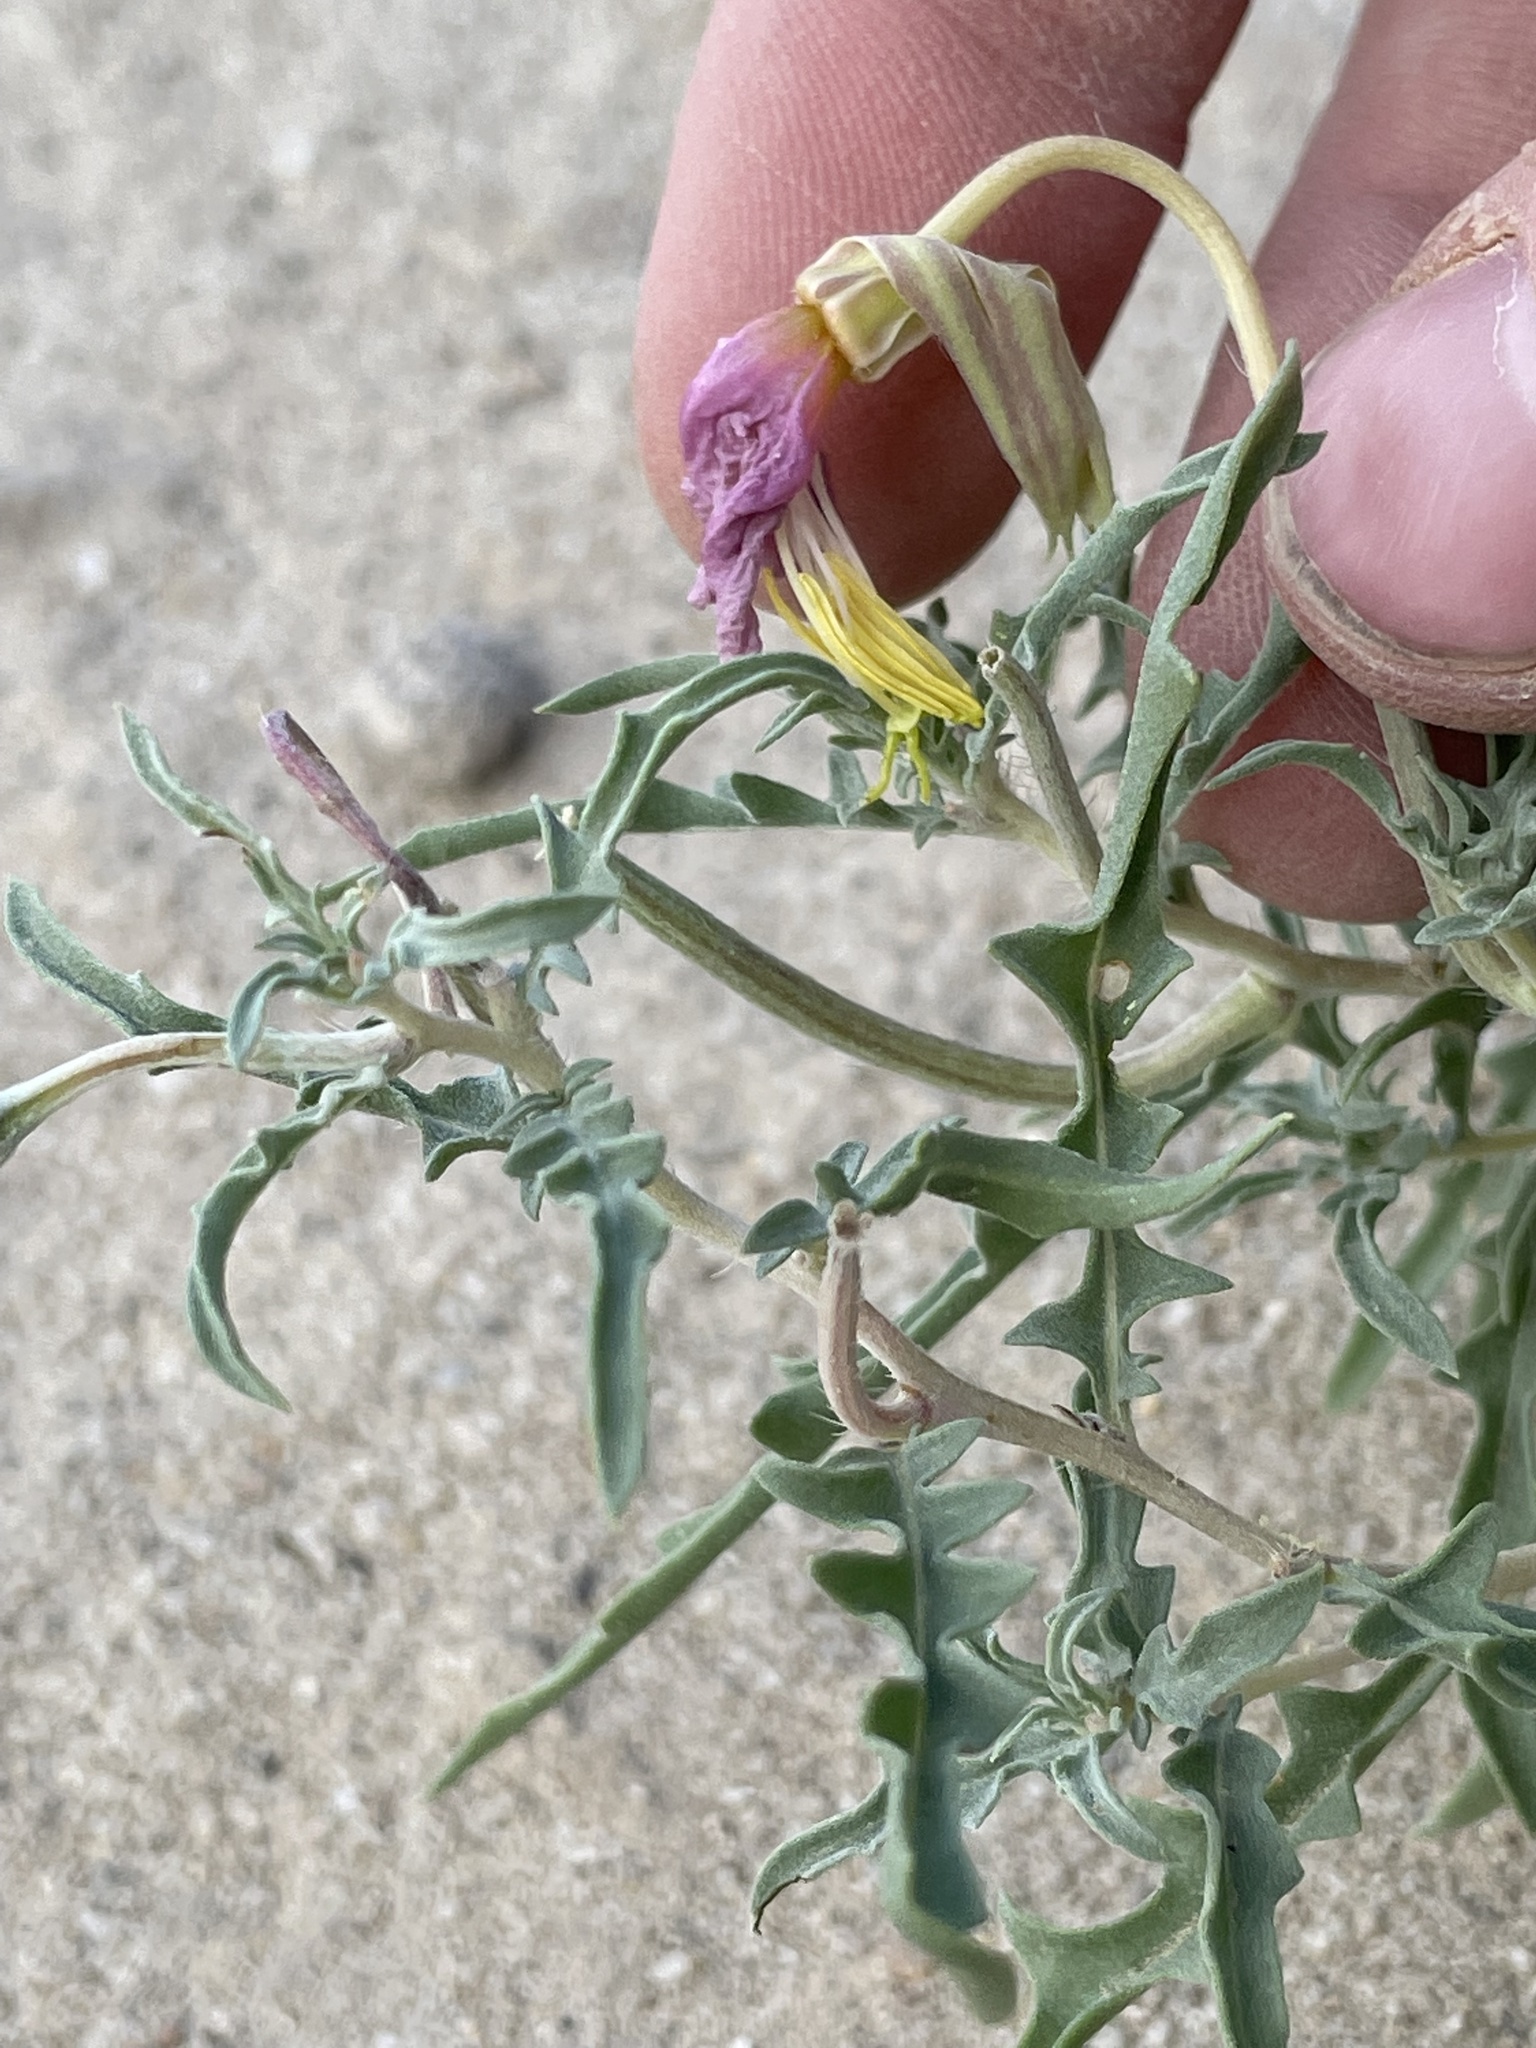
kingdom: Plantae
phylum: Tracheophyta
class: Magnoliopsida
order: Myrtales
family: Onagraceae
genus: Oenothera
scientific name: Oenothera pallida
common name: Pale evening-primrose
